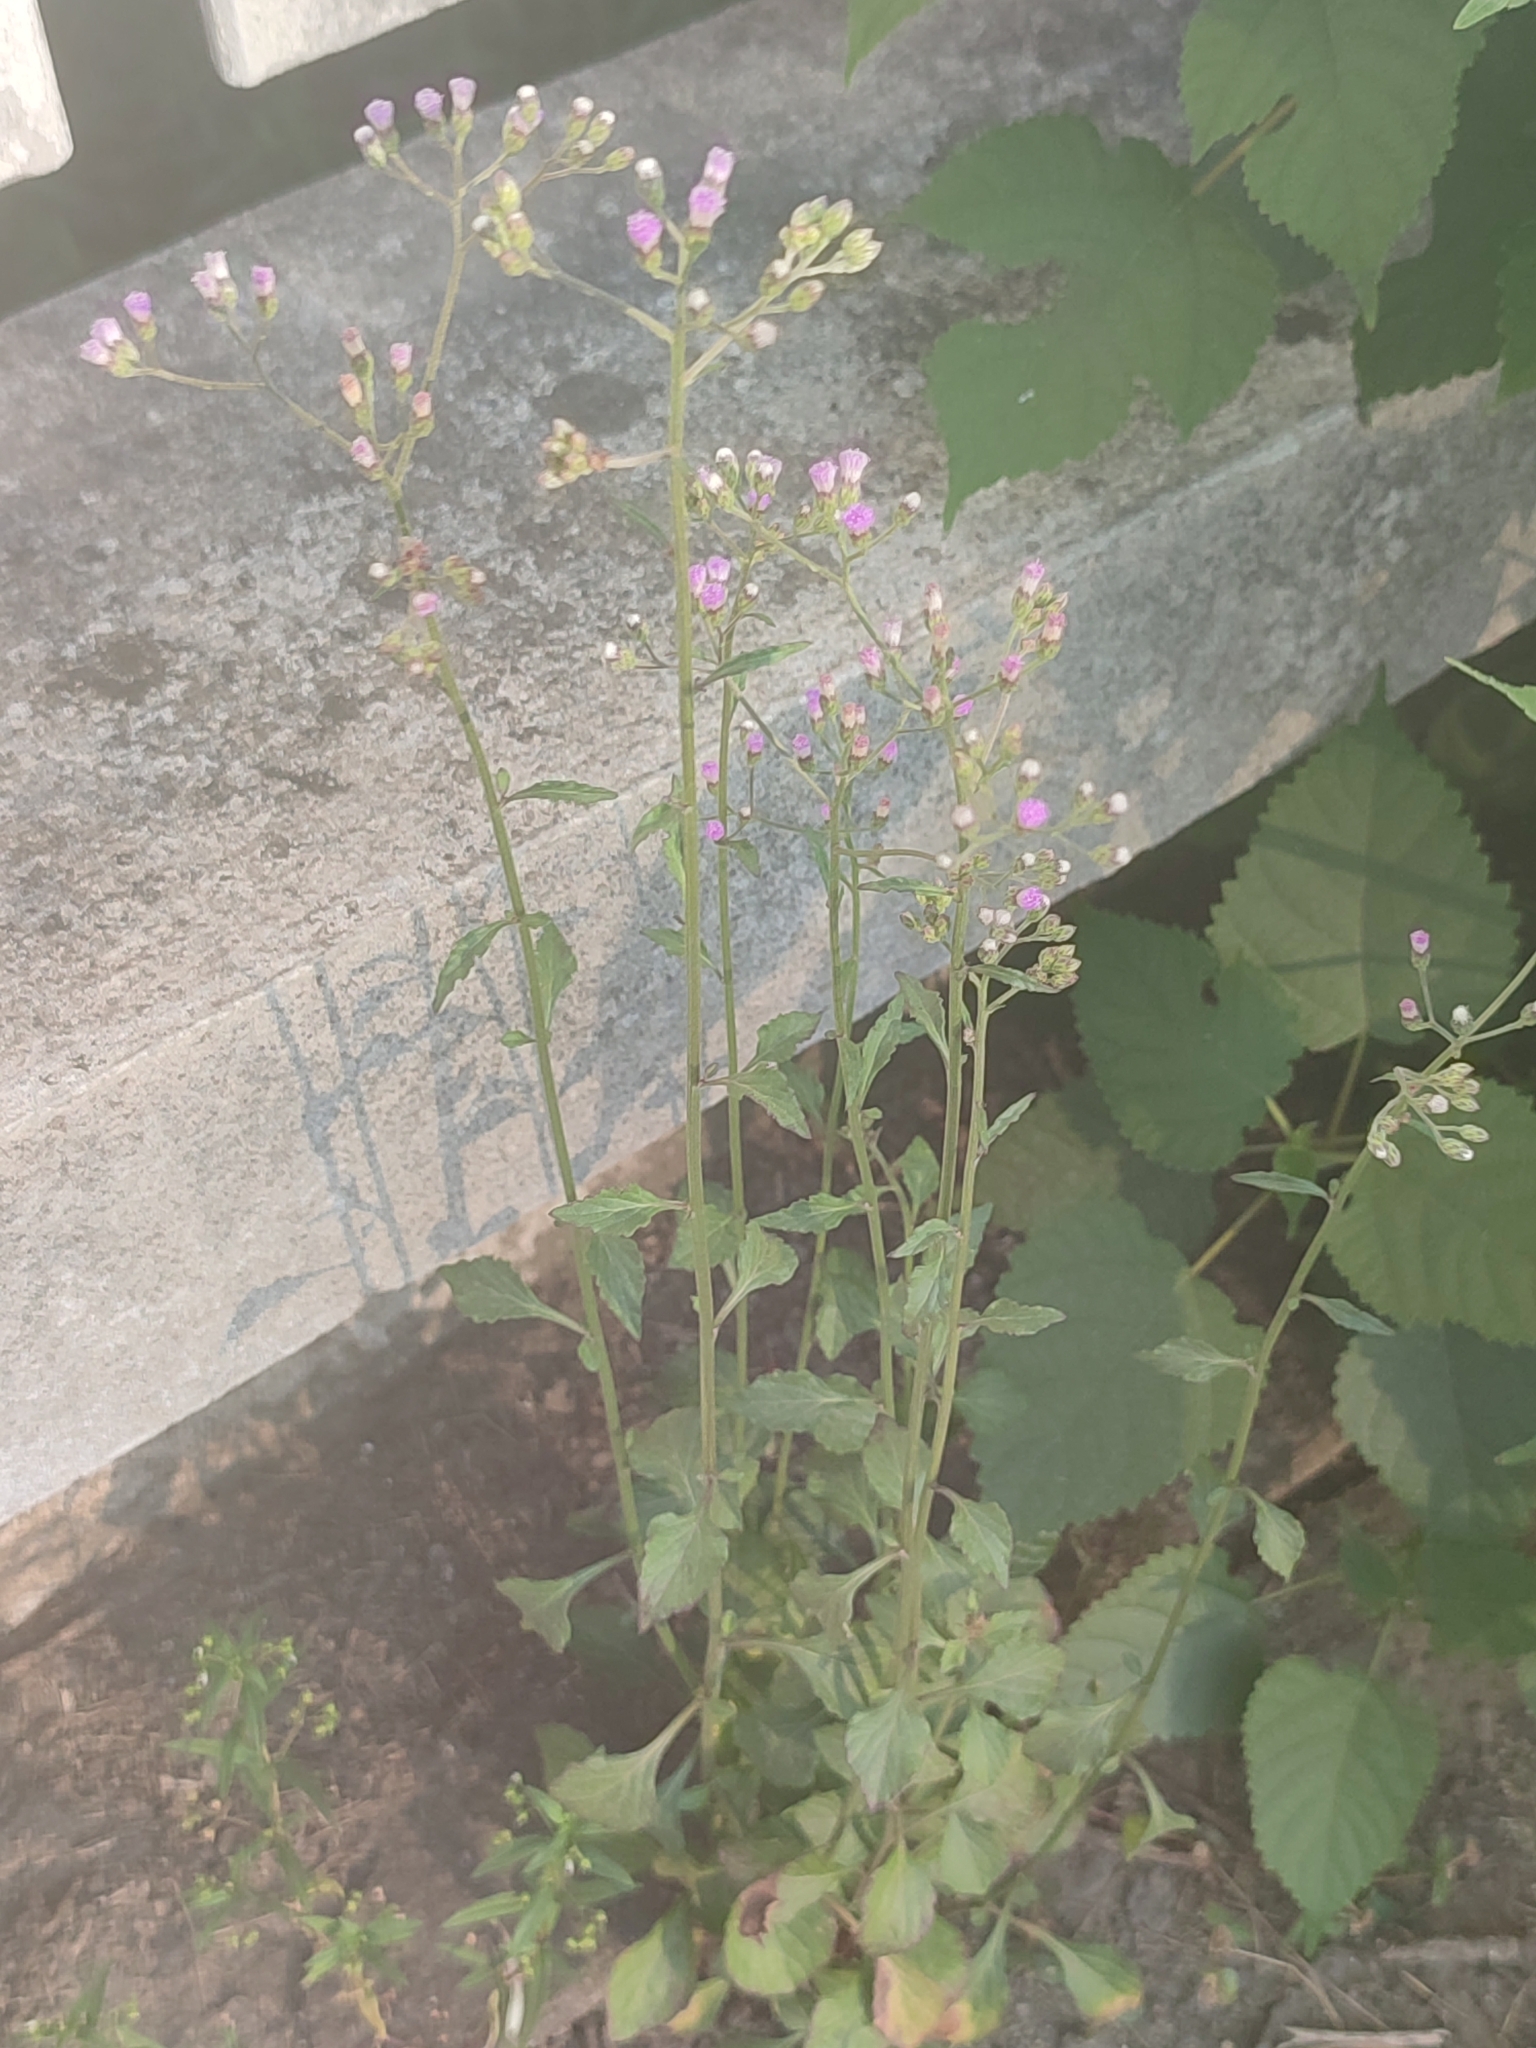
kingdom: Plantae
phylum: Tracheophyta
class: Magnoliopsida
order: Asterales
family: Asteraceae
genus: Cyanthillium
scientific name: Cyanthillium cinereum
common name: Little ironweed
